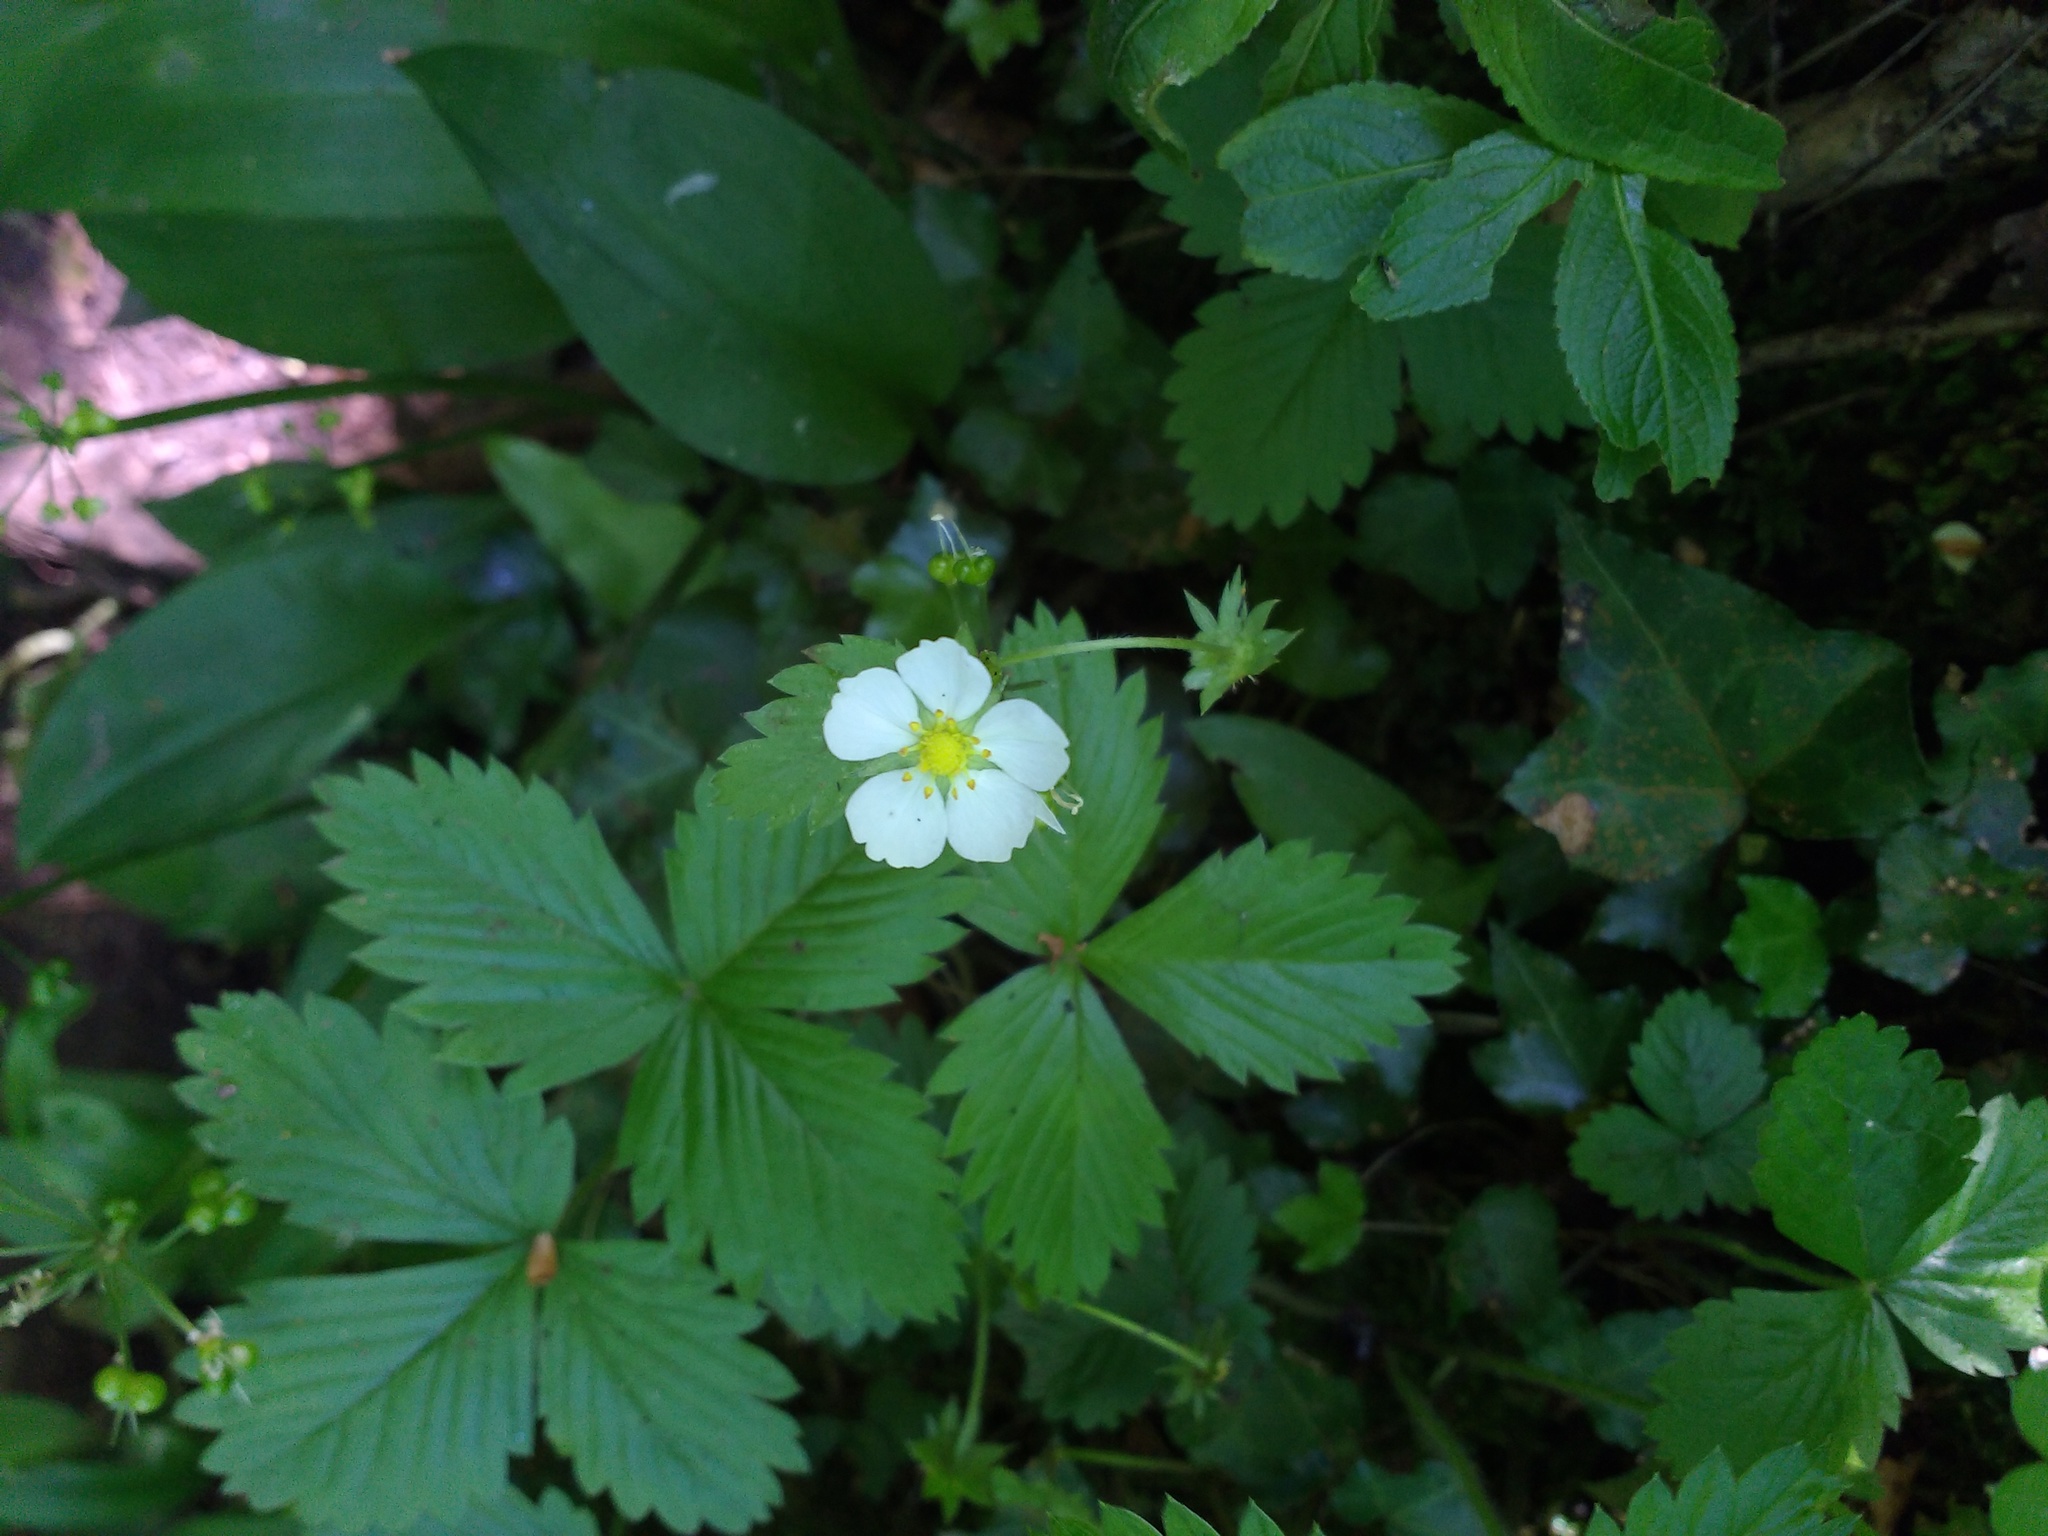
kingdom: Plantae
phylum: Tracheophyta
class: Magnoliopsida
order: Rosales
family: Rosaceae
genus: Fragaria
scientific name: Fragaria vesca
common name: Wild strawberry
